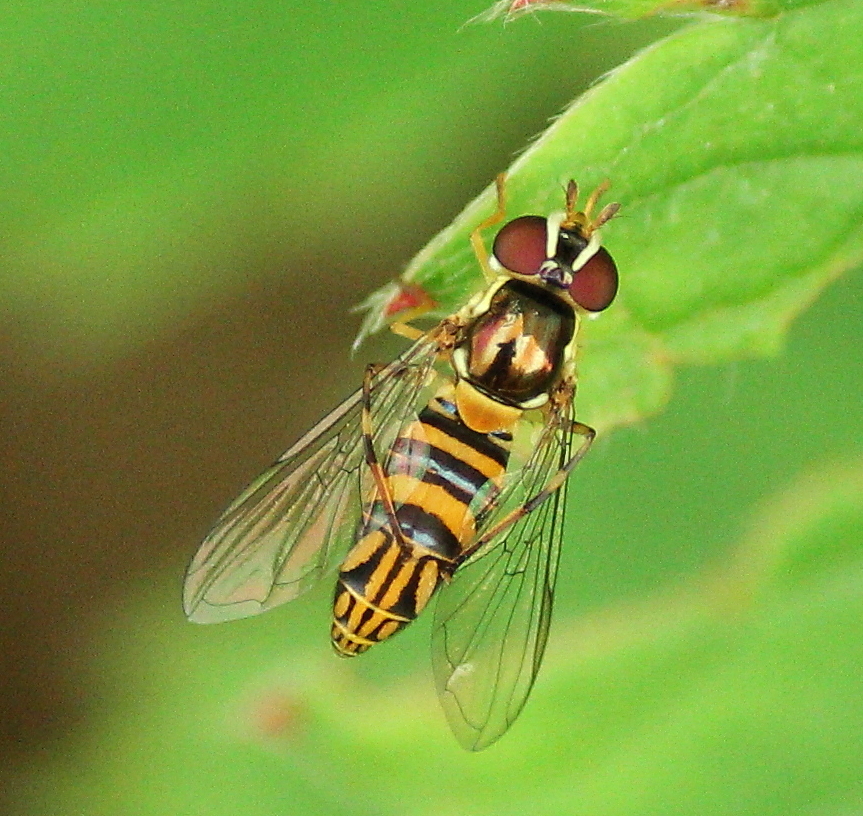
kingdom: Animalia
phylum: Arthropoda
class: Insecta
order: Diptera
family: Syrphidae
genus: Allograpta
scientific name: Allograpta obliqua
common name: Common oblique syrphid
